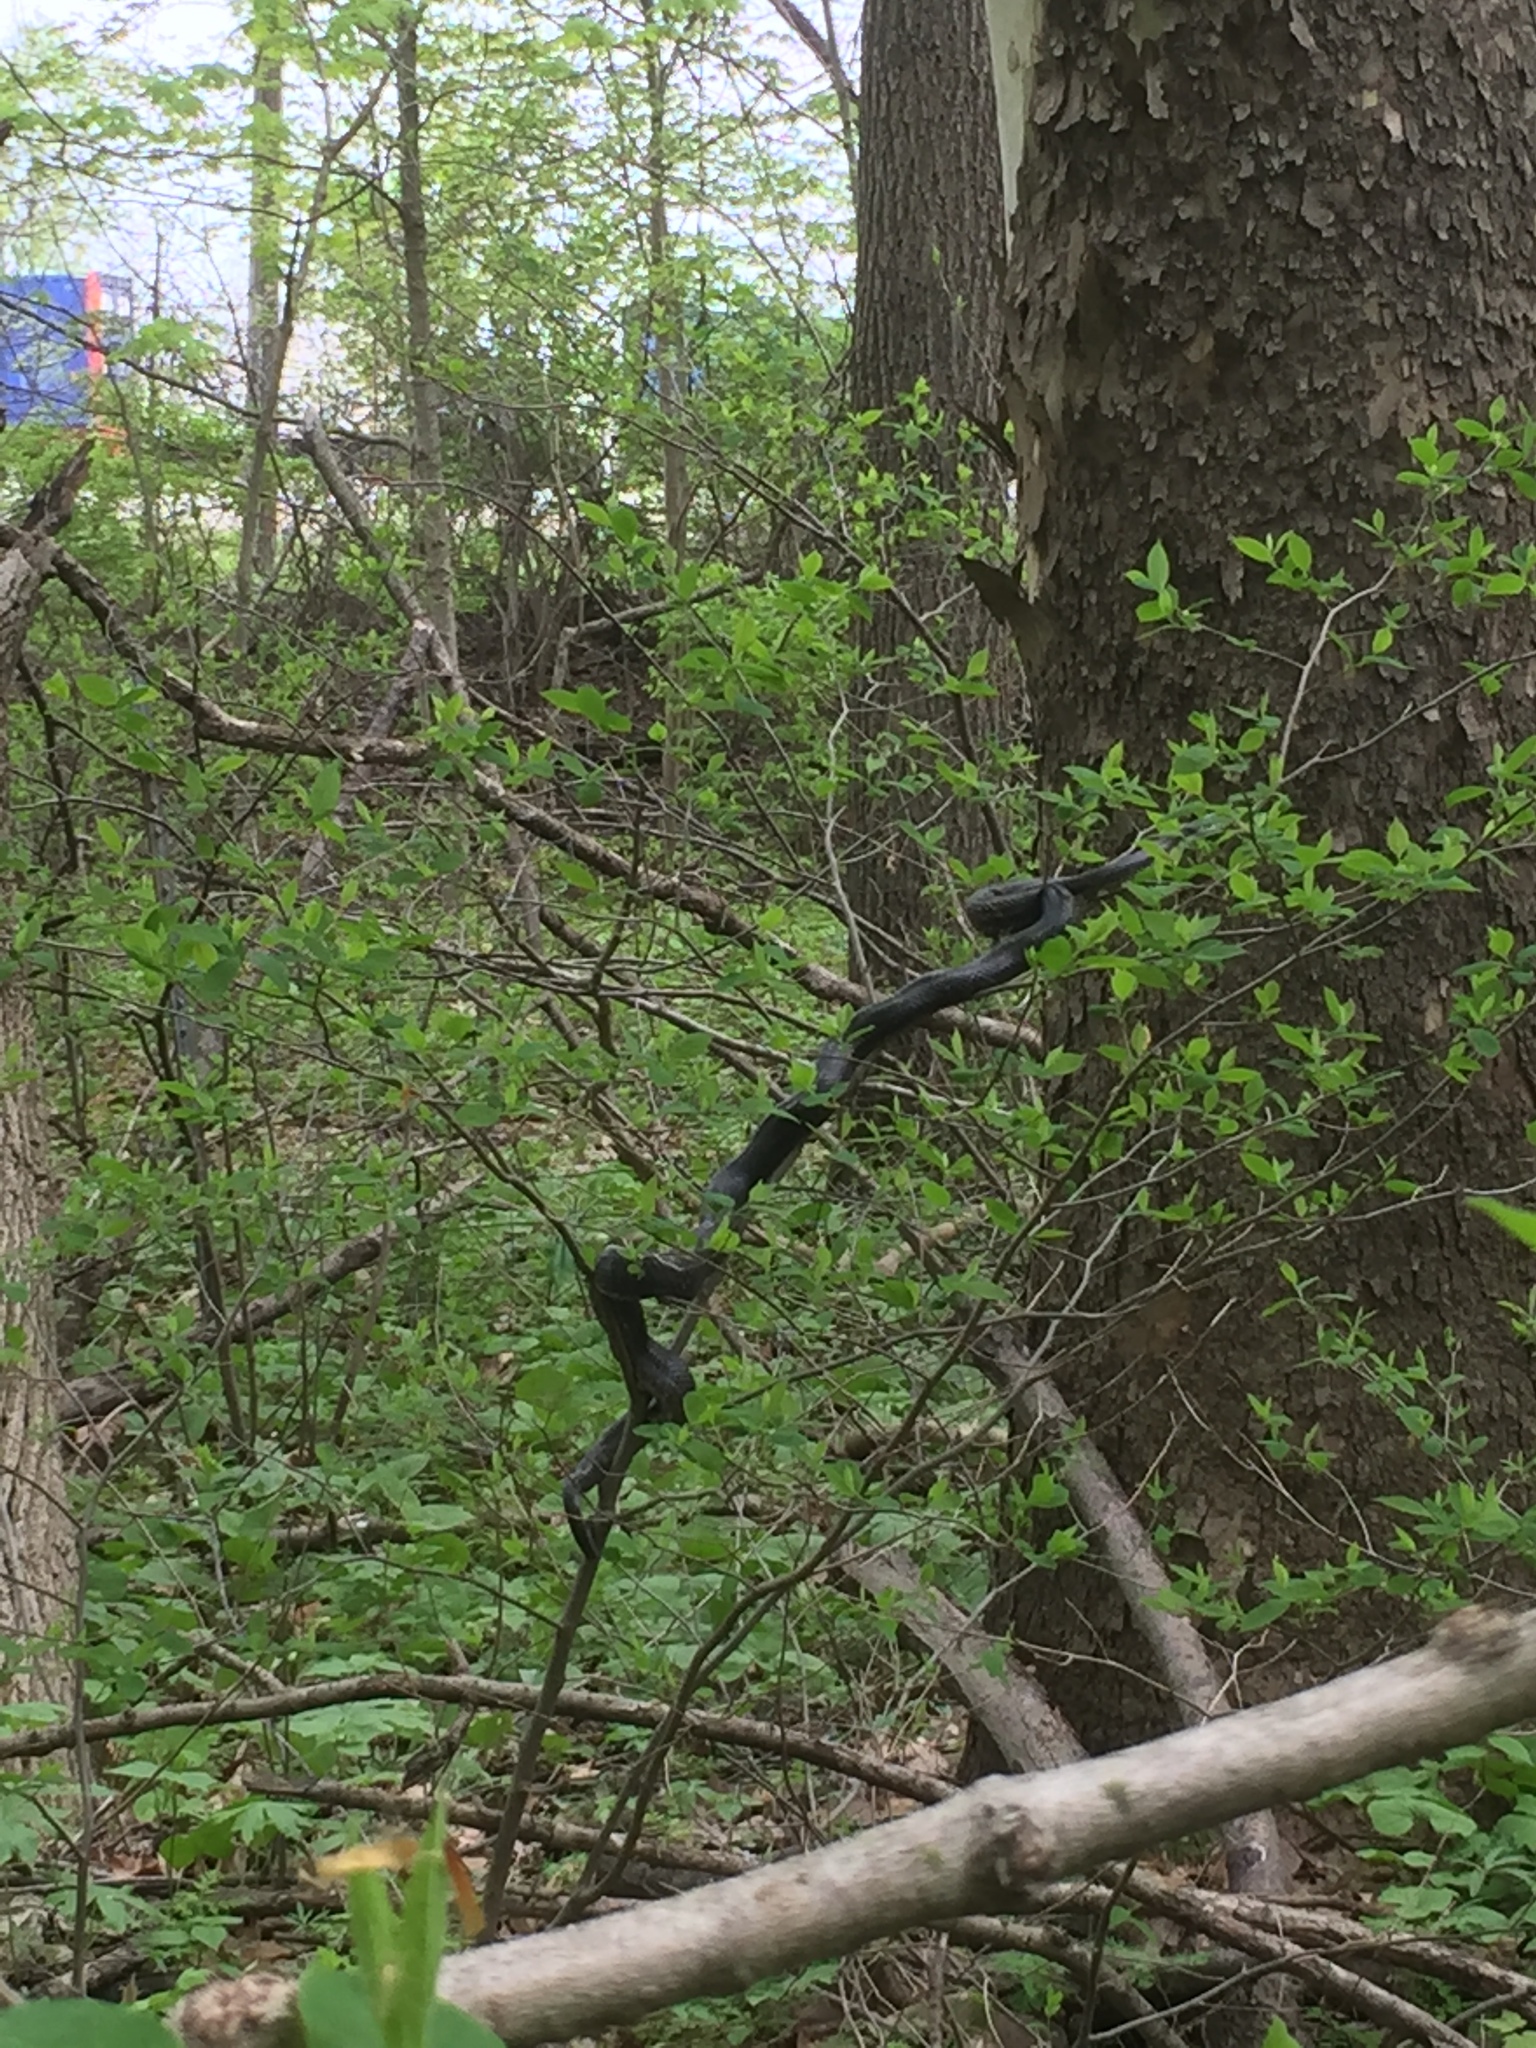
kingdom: Animalia
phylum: Chordata
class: Squamata
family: Colubridae
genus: Pantherophis
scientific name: Pantherophis spiloides
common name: Gray rat snake
